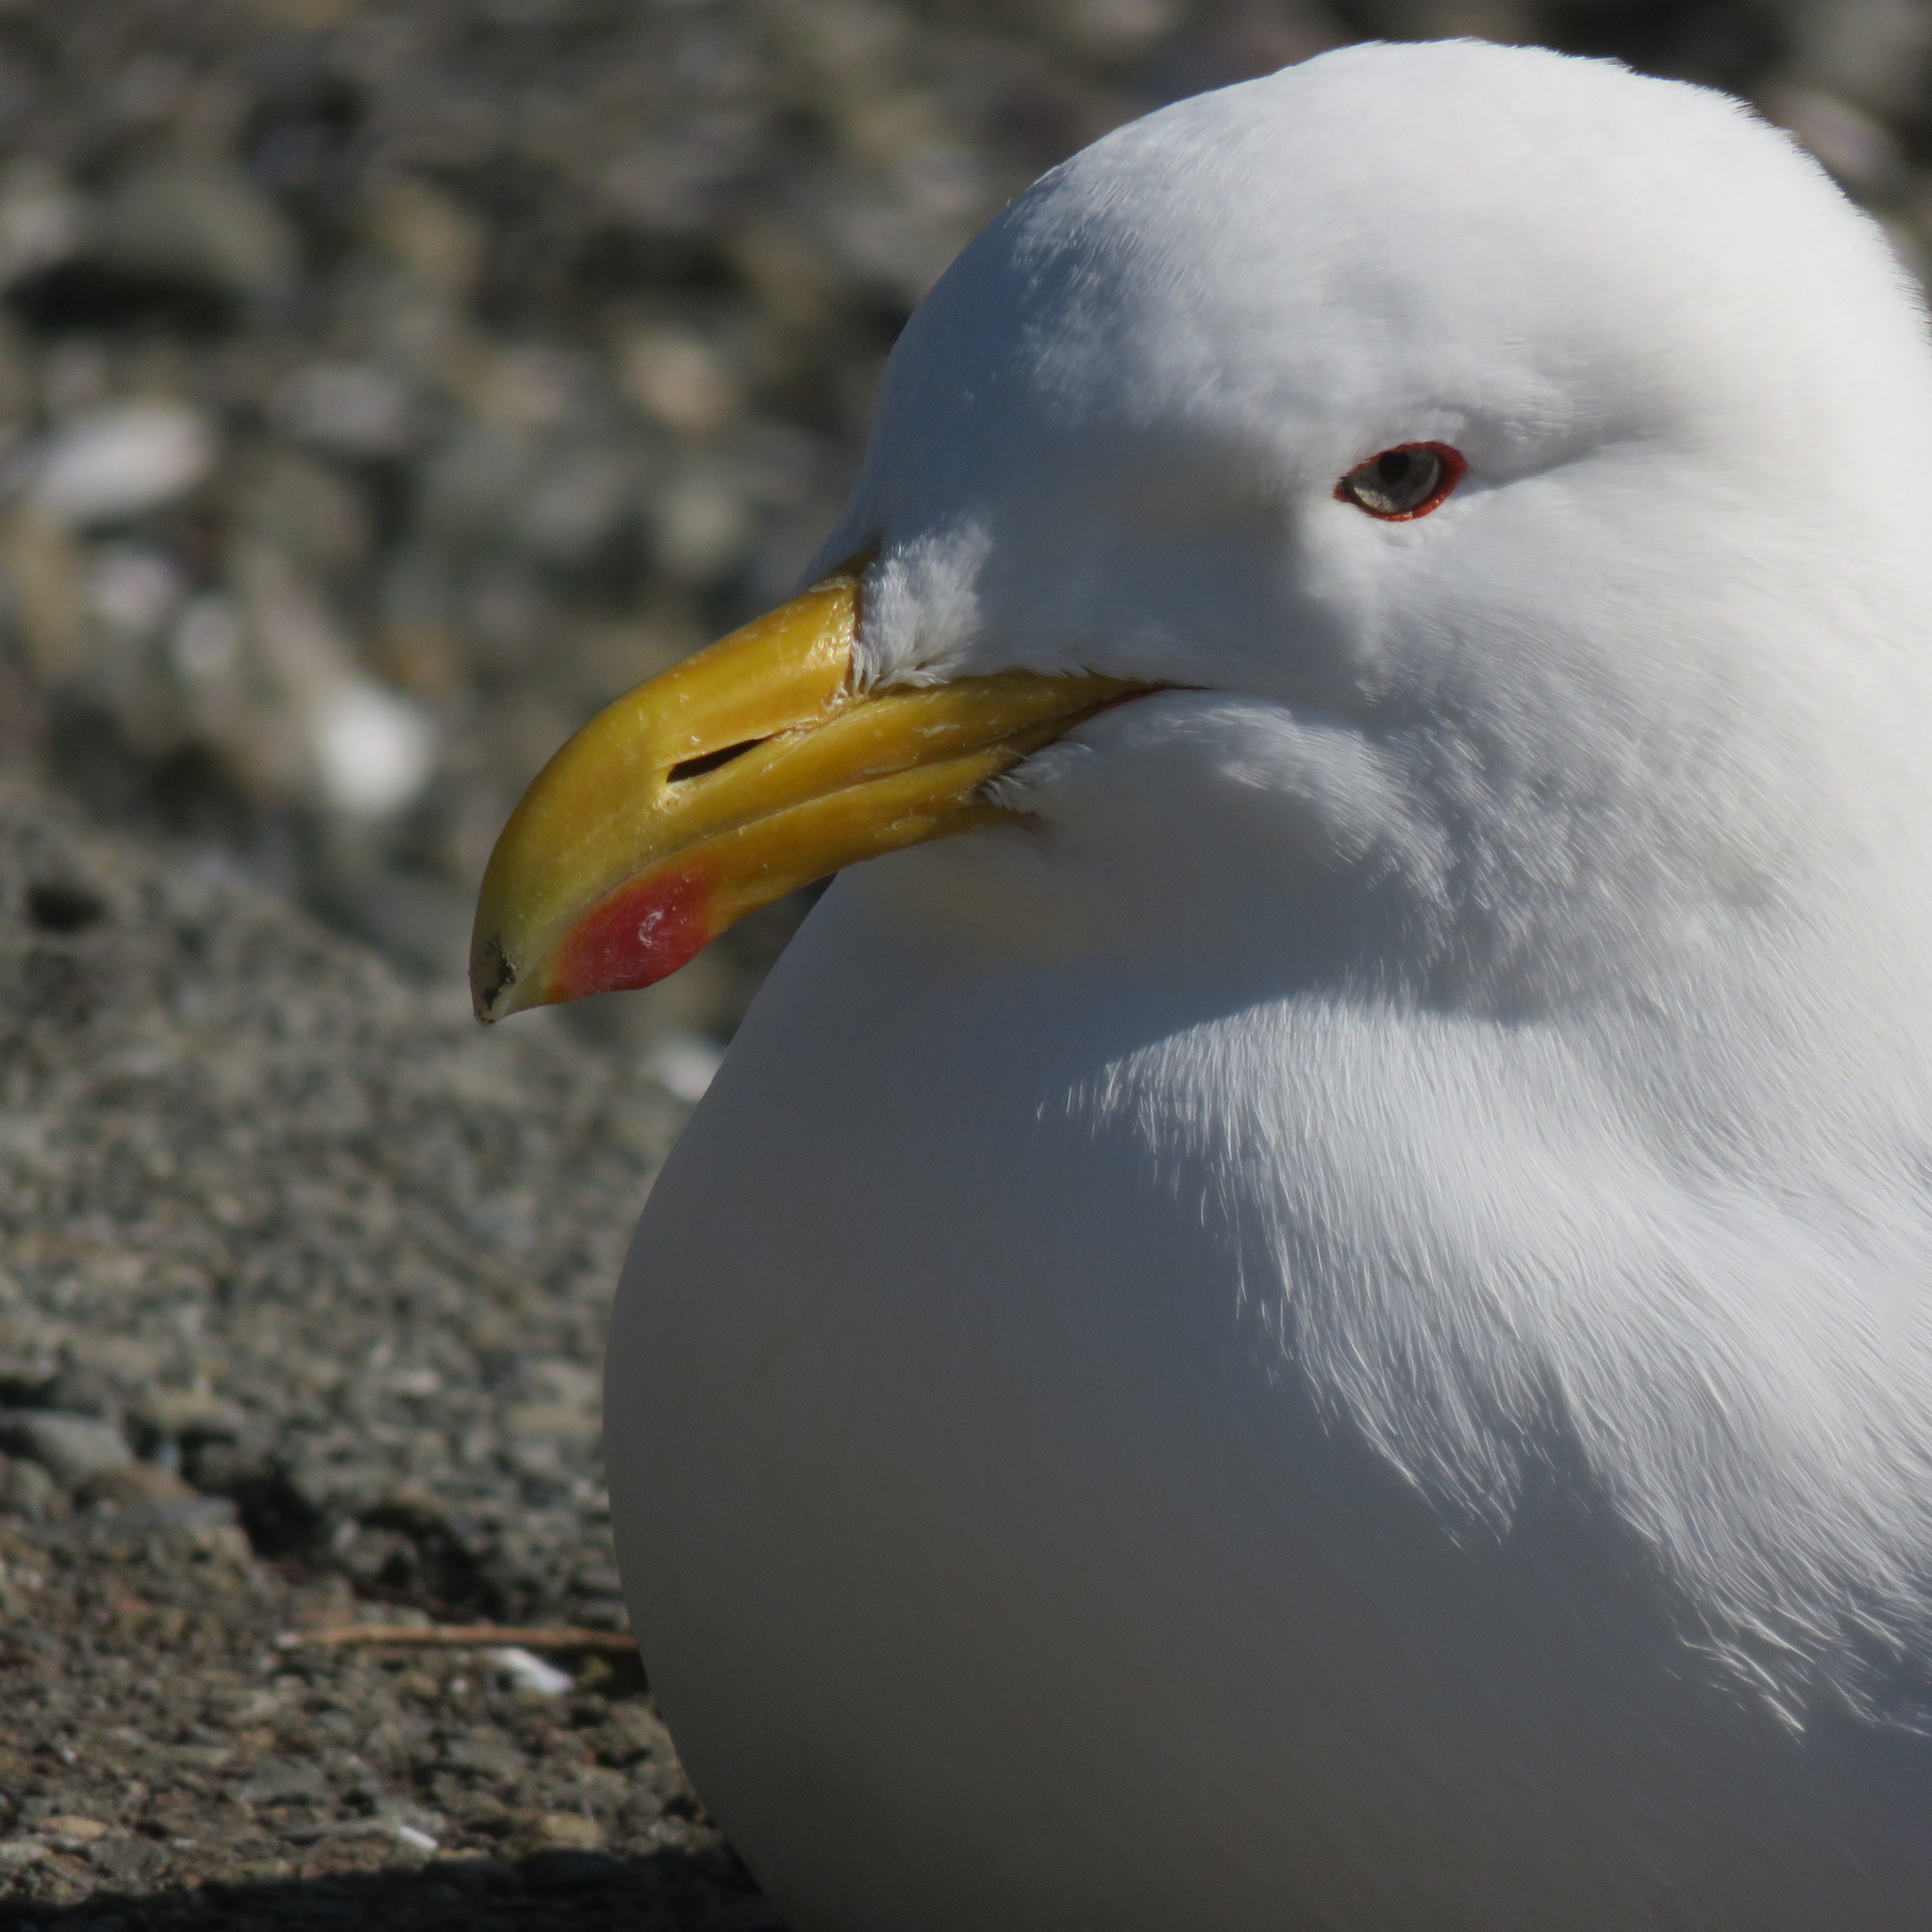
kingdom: Animalia
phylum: Chordata
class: Aves
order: Charadriiformes
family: Laridae
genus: Larus
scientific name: Larus dominicanus
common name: Kelp gull
